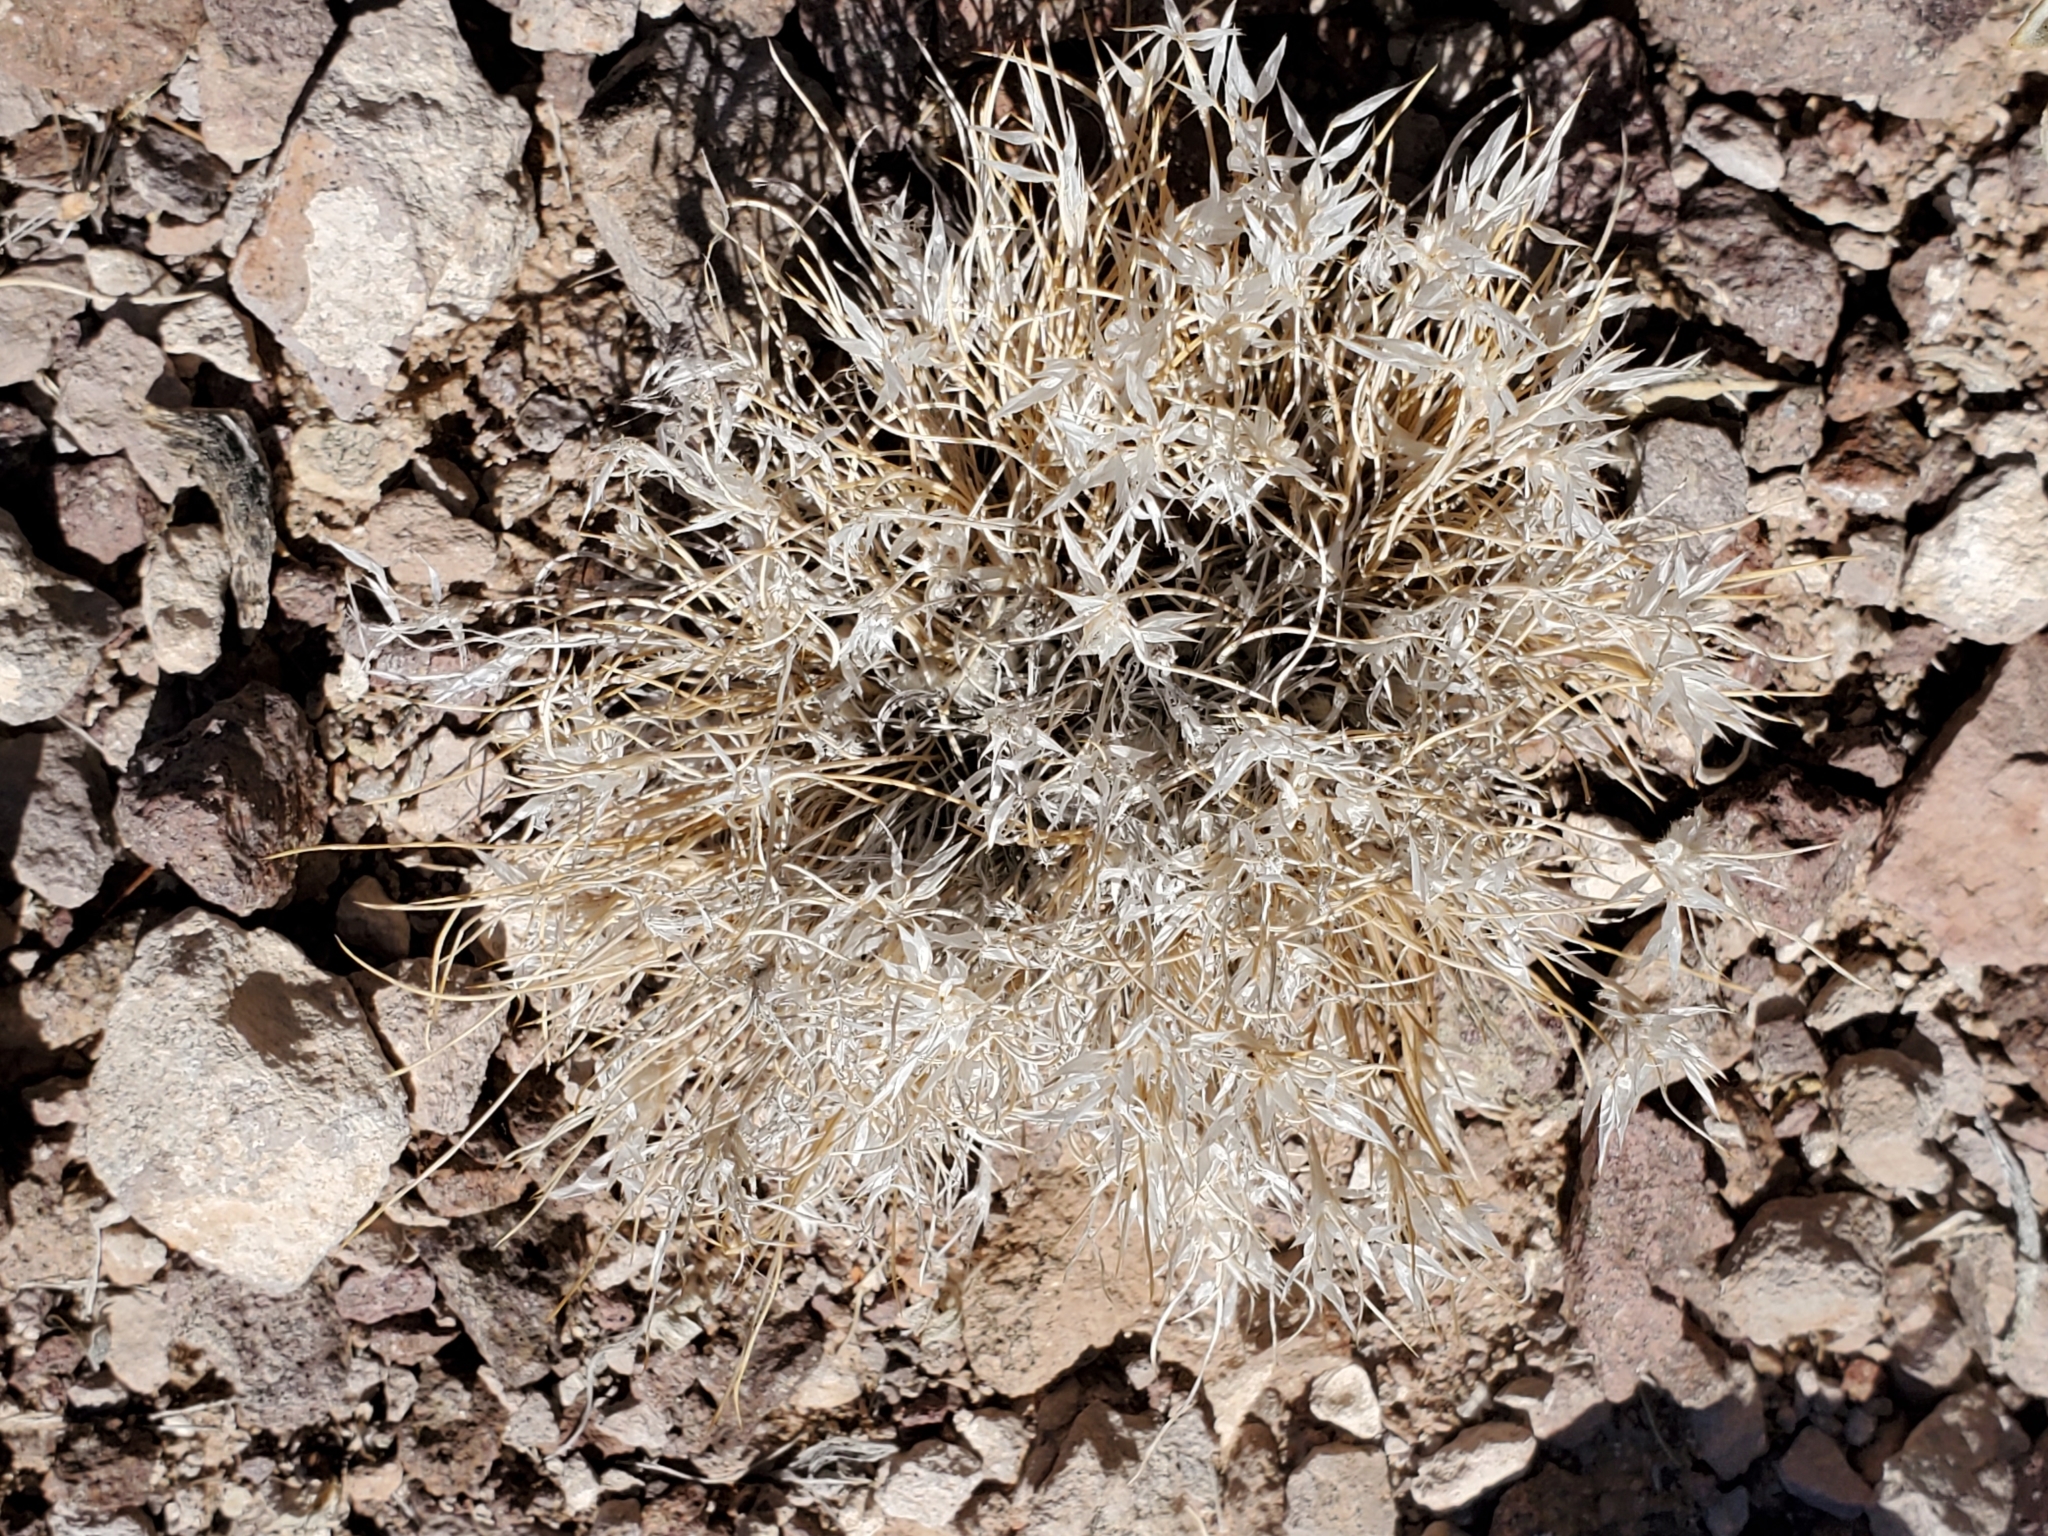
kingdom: Plantae
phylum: Tracheophyta
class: Liliopsida
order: Poales
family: Poaceae
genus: Dasyochloa
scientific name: Dasyochloa pulchella
